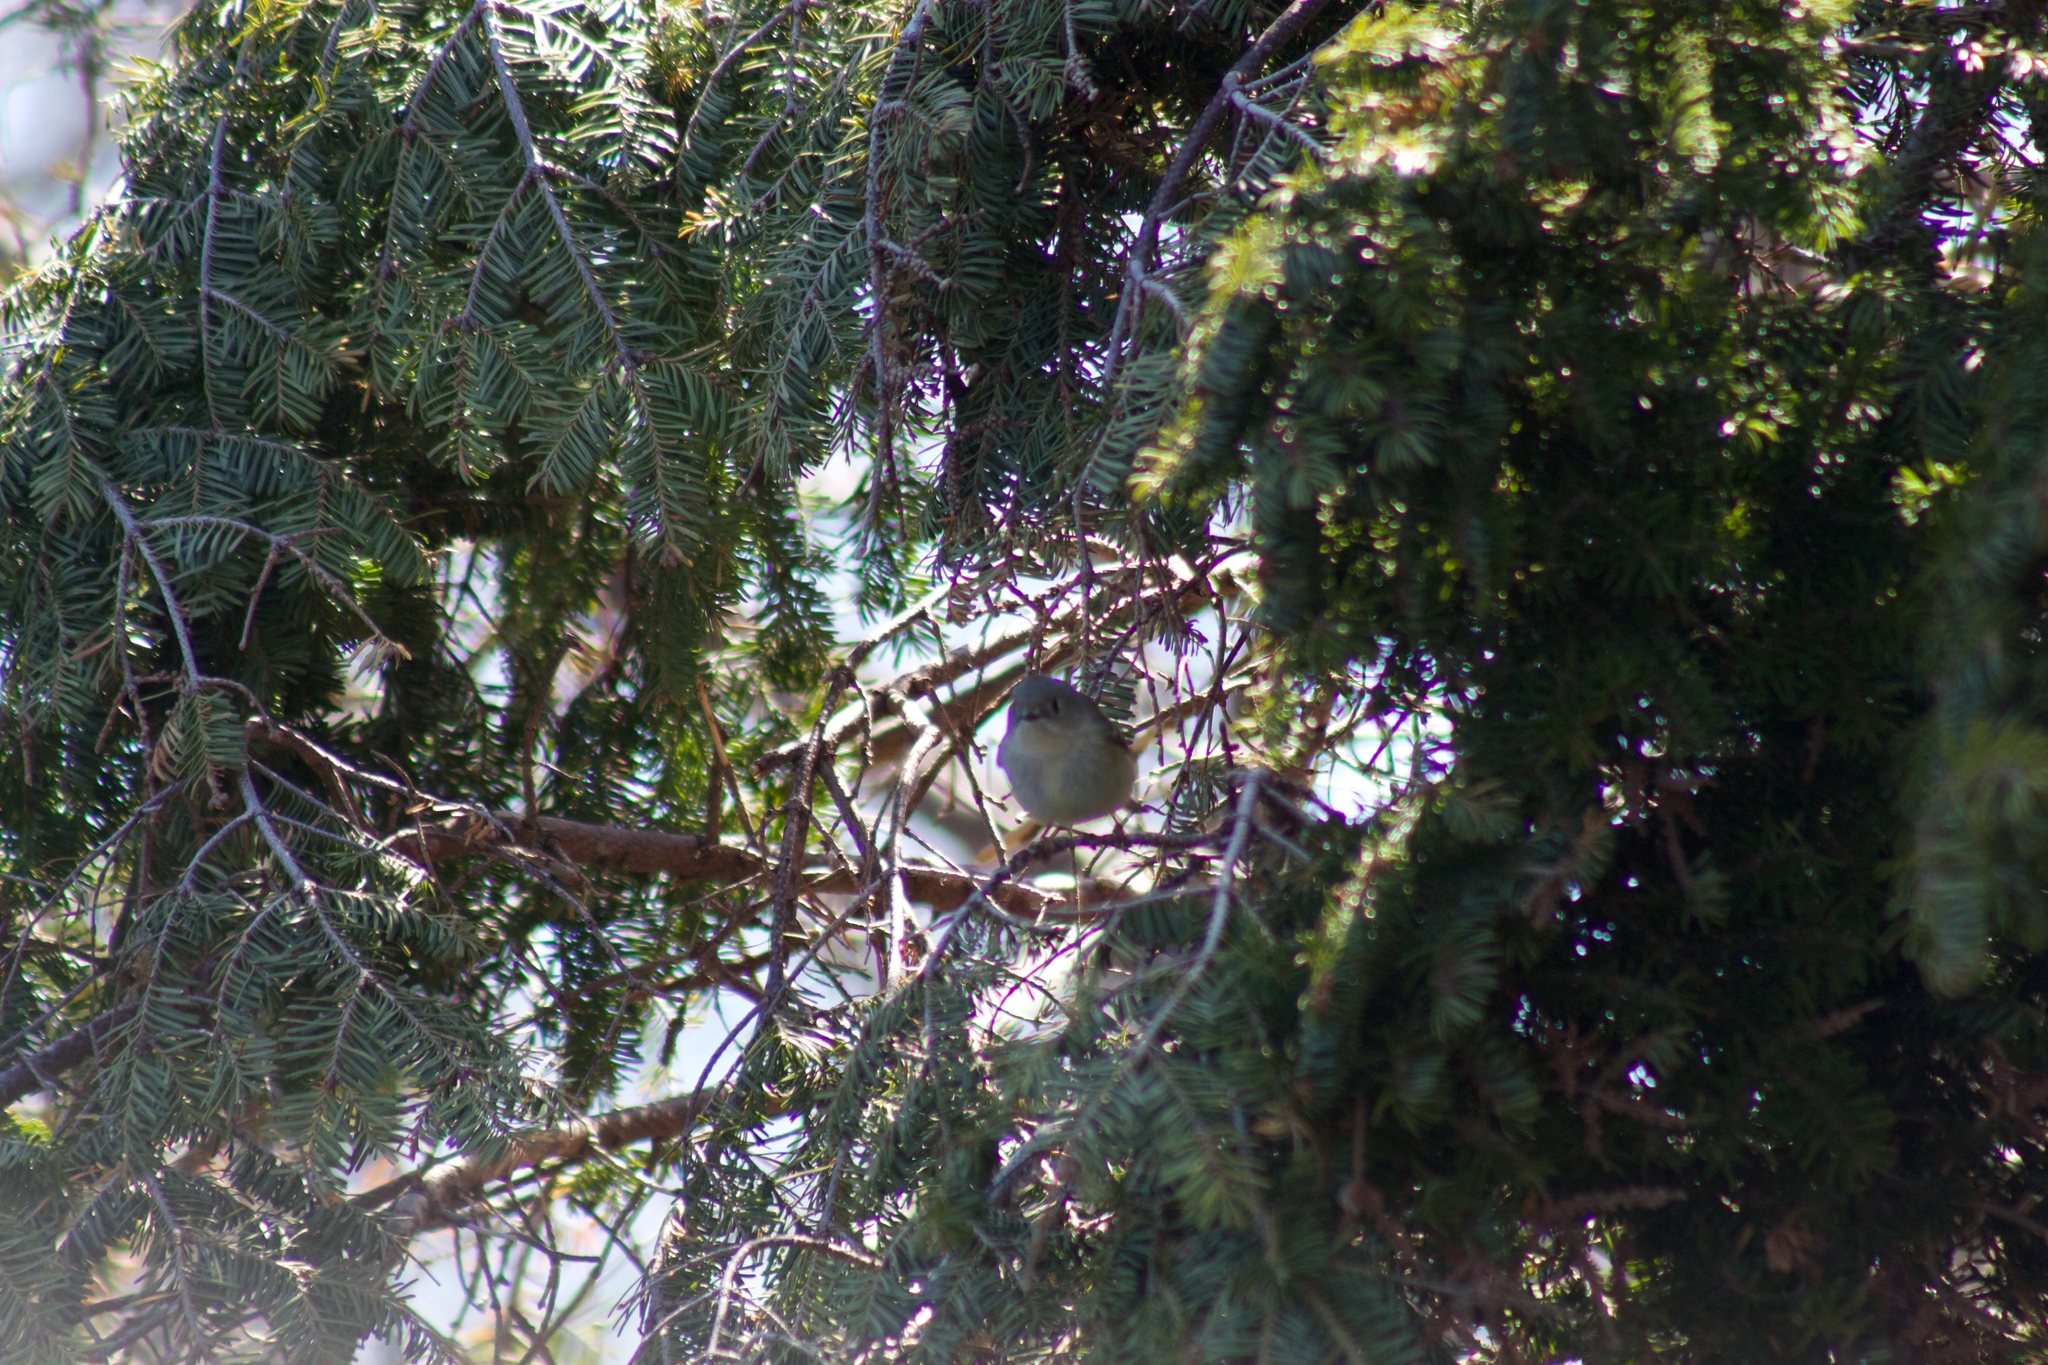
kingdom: Animalia
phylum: Chordata
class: Aves
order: Passeriformes
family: Regulidae
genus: Regulus
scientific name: Regulus calendula
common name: Ruby-crowned kinglet
